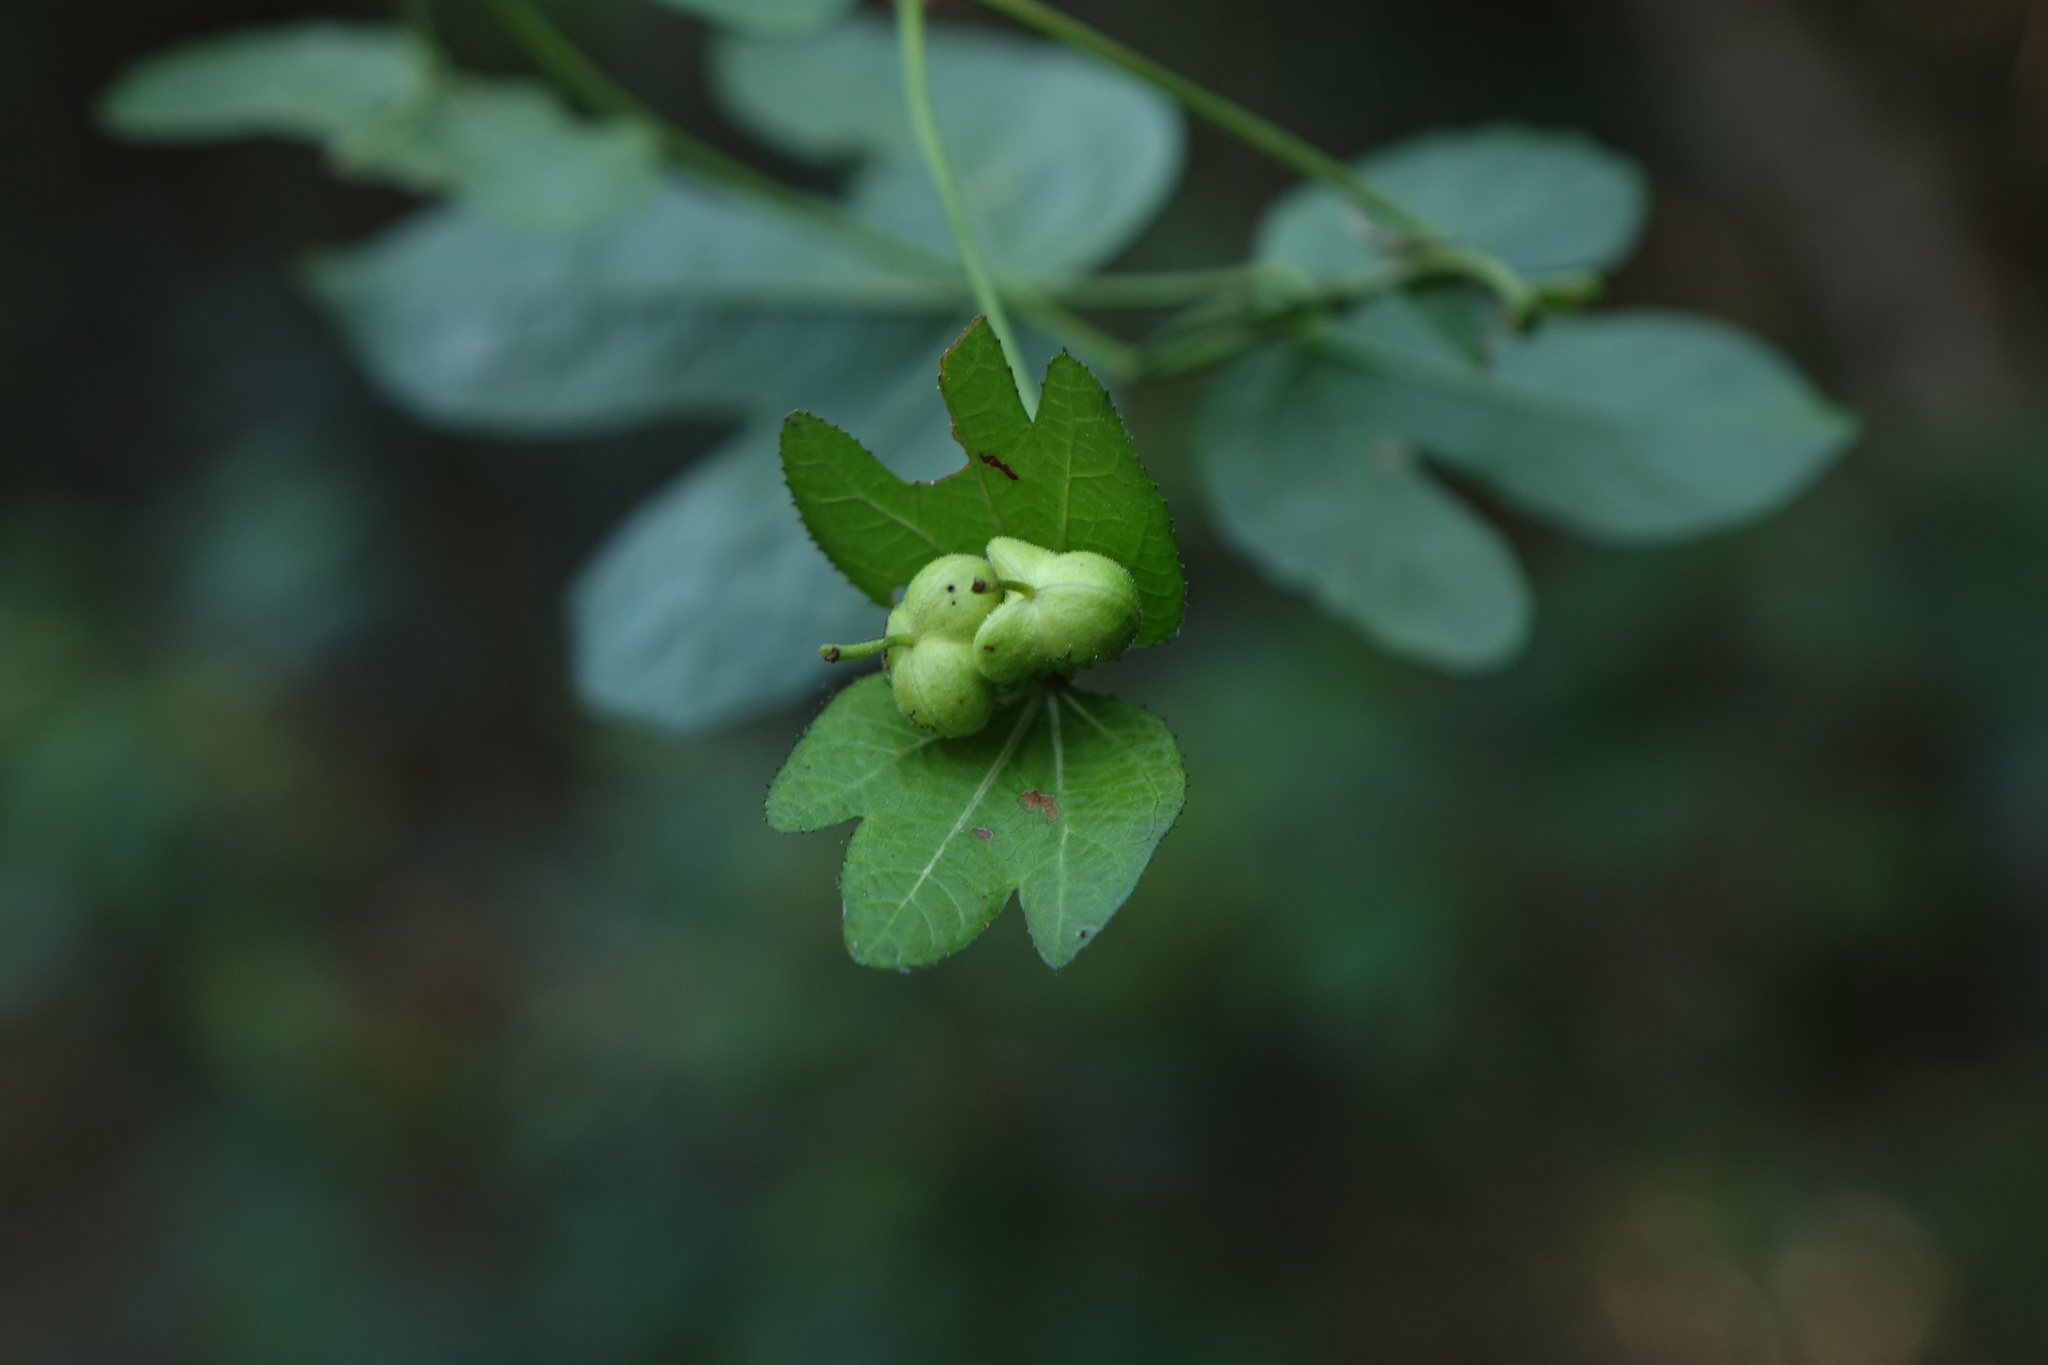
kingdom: Plantae
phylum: Tracheophyta
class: Magnoliopsida
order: Malpighiales
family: Euphorbiaceae
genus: Dalechampia
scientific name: Dalechampia chlorocephala
